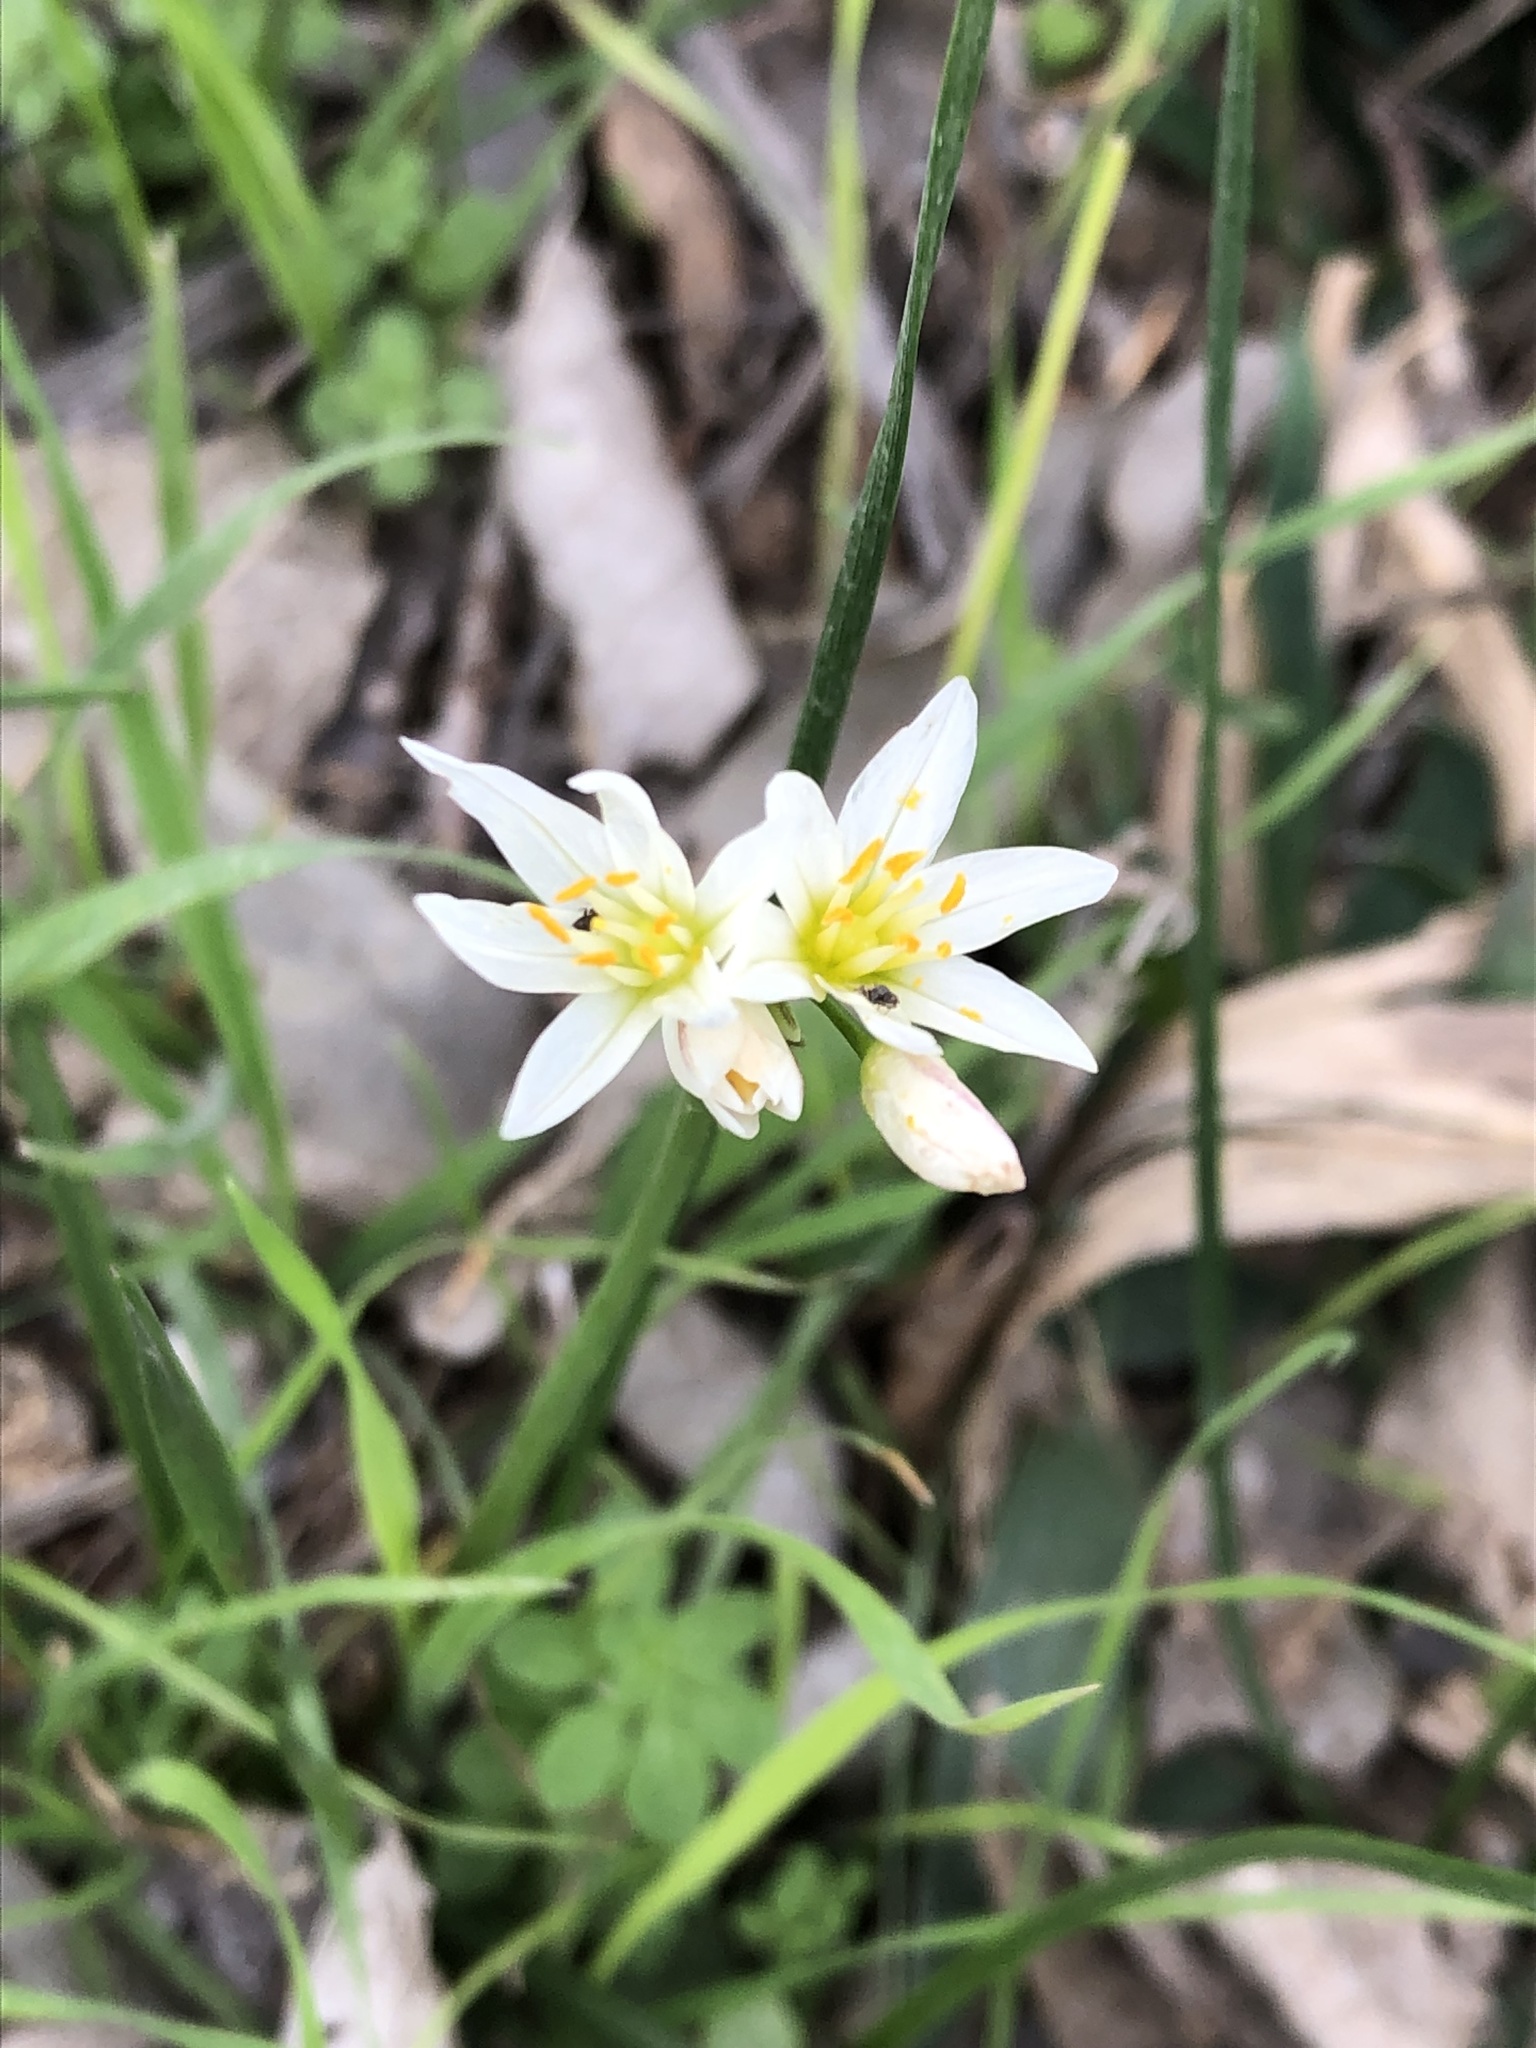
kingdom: Plantae
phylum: Tracheophyta
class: Liliopsida
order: Asparagales
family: Amaryllidaceae
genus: Nothoscordum
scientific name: Nothoscordum bivalve
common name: Crow-poison
